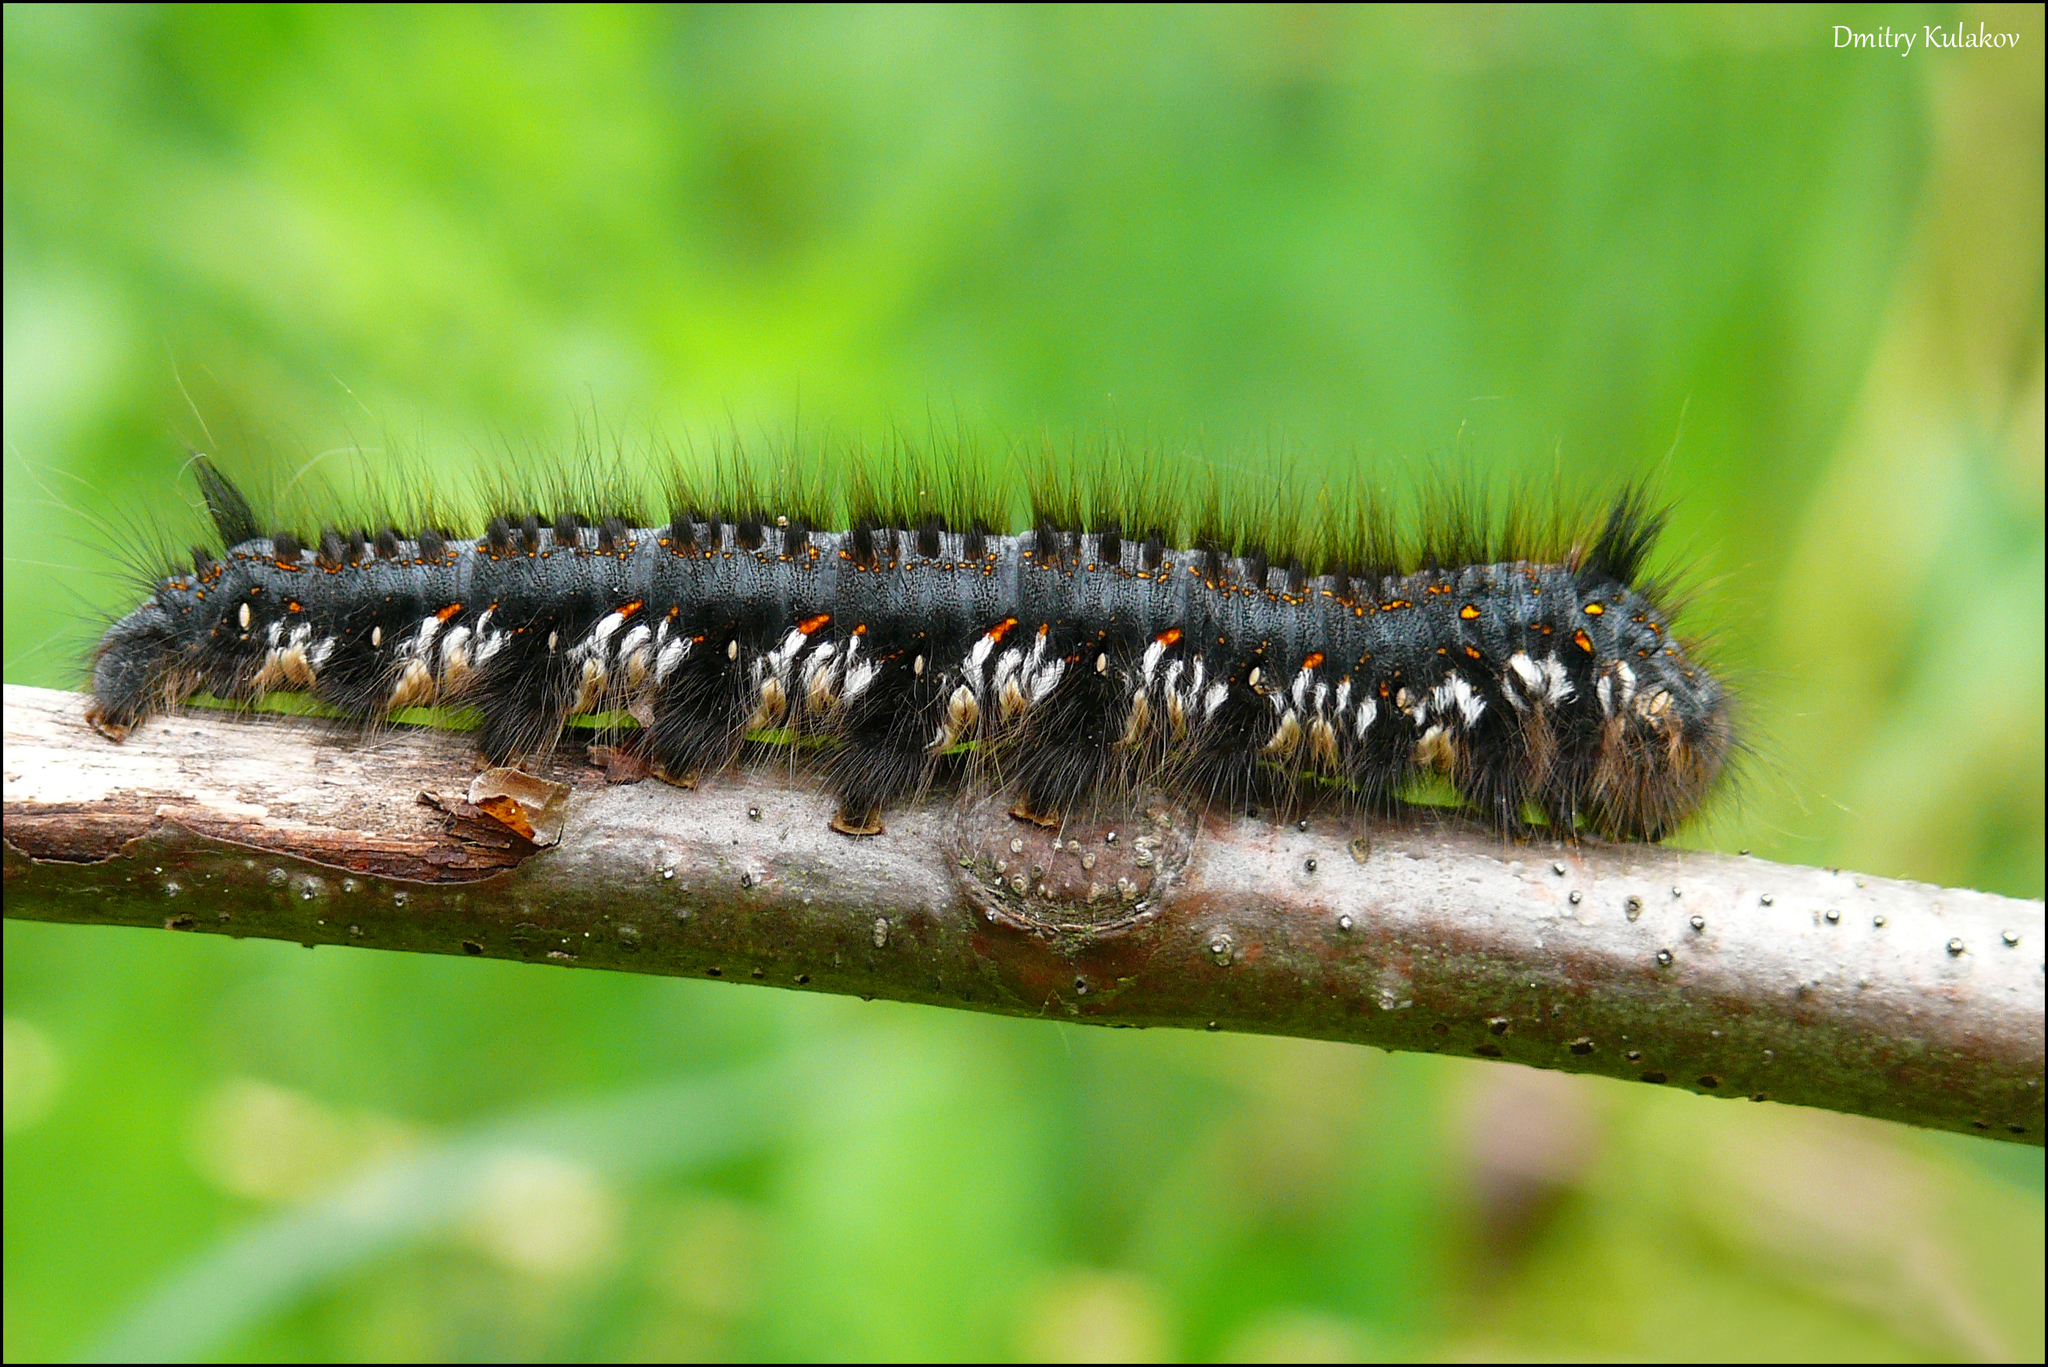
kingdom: Animalia
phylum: Arthropoda
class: Insecta
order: Lepidoptera
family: Lasiocampidae
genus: Euthrix
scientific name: Euthrix potatoria
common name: Drinker
